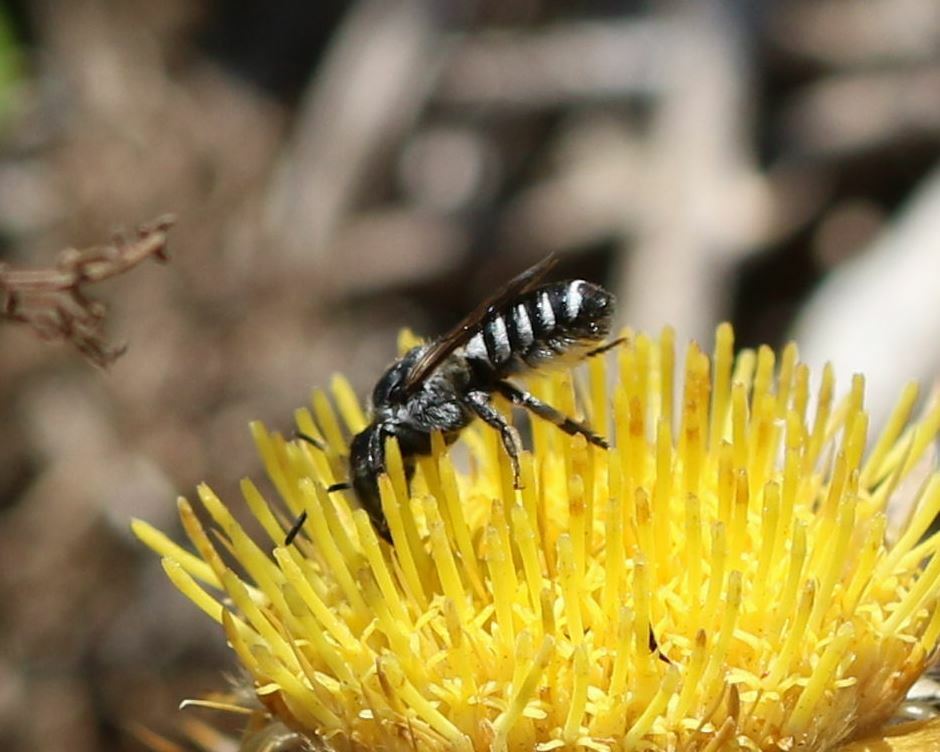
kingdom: Animalia
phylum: Arthropoda
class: Insecta
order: Hymenoptera
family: Megachilidae
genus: Megachile
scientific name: Megachile apicalis
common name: Apical leafcutter bee
